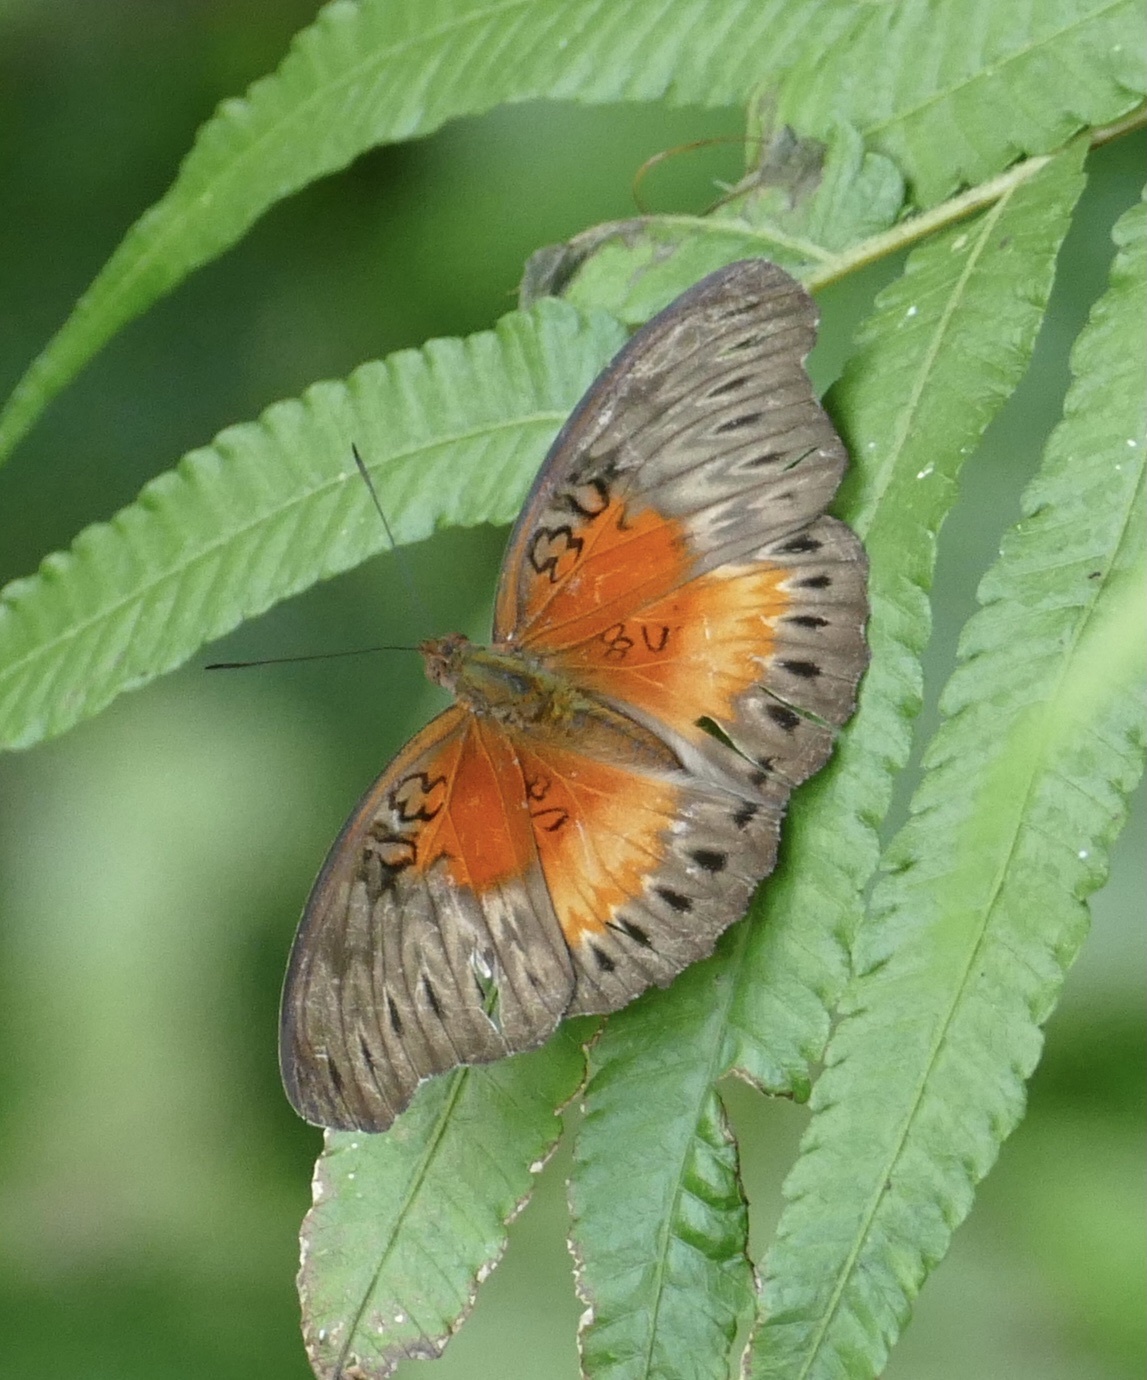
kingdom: Animalia
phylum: Arthropoda
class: Insecta
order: Lepidoptera
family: Nymphalidae
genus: Cymothoe
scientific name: Cymothoe coccinata
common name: Common red glider
